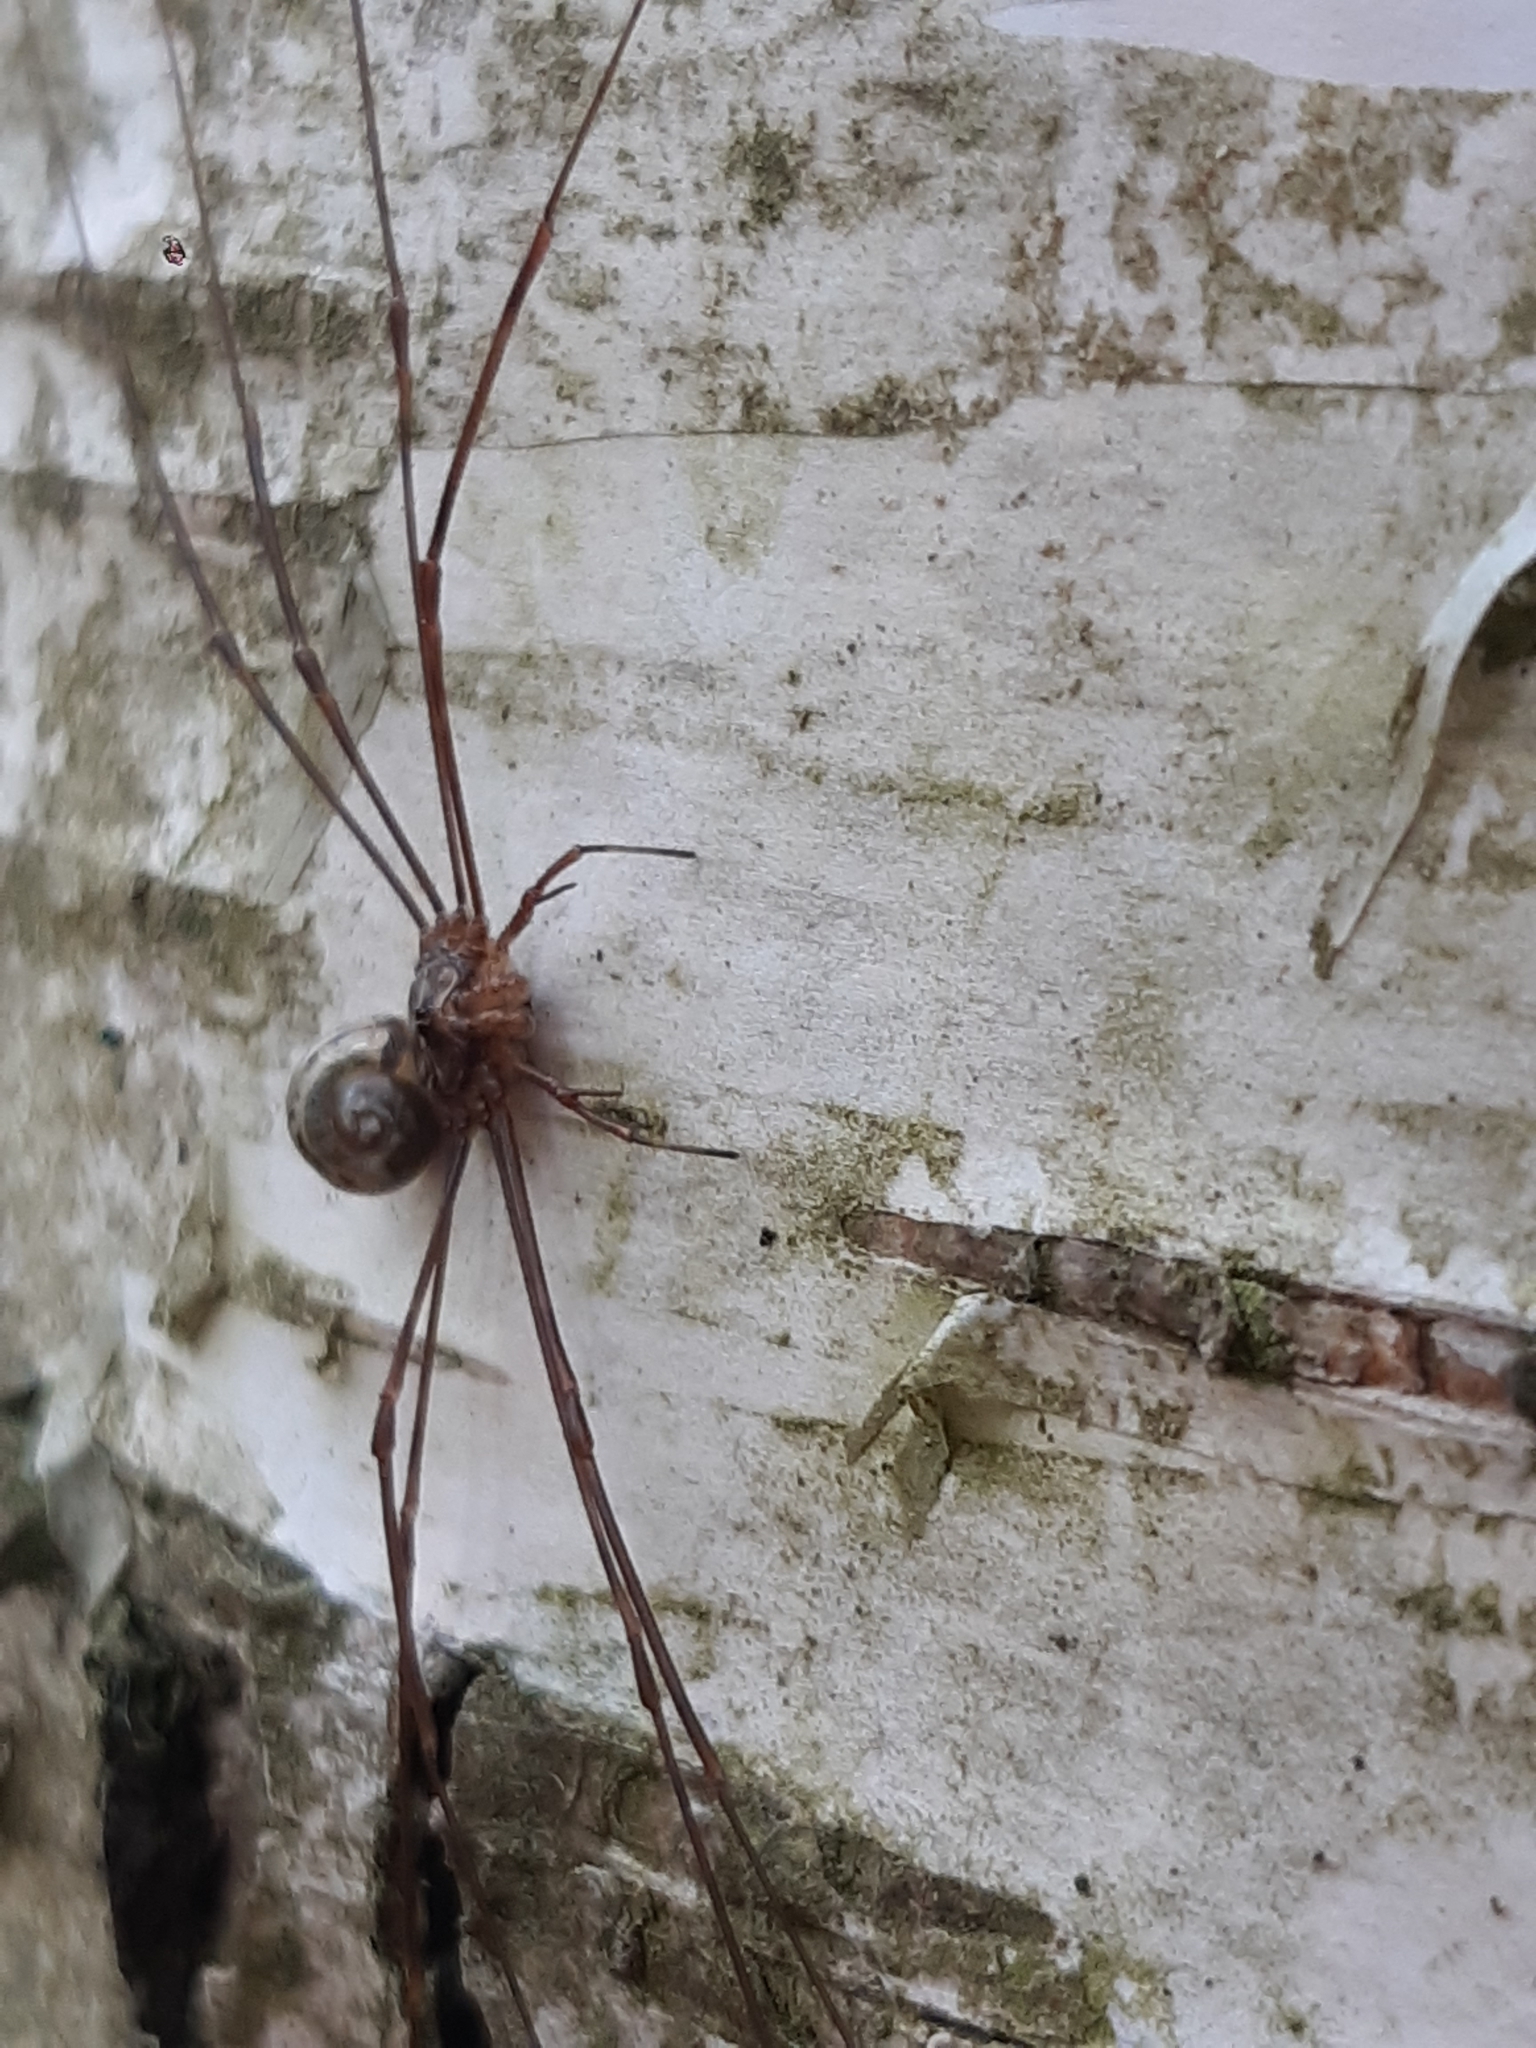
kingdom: Animalia
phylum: Arthropoda
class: Arachnida
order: Opiliones
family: Phalangiidae
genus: Dicranopalpus
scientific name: Dicranopalpus ramosus
